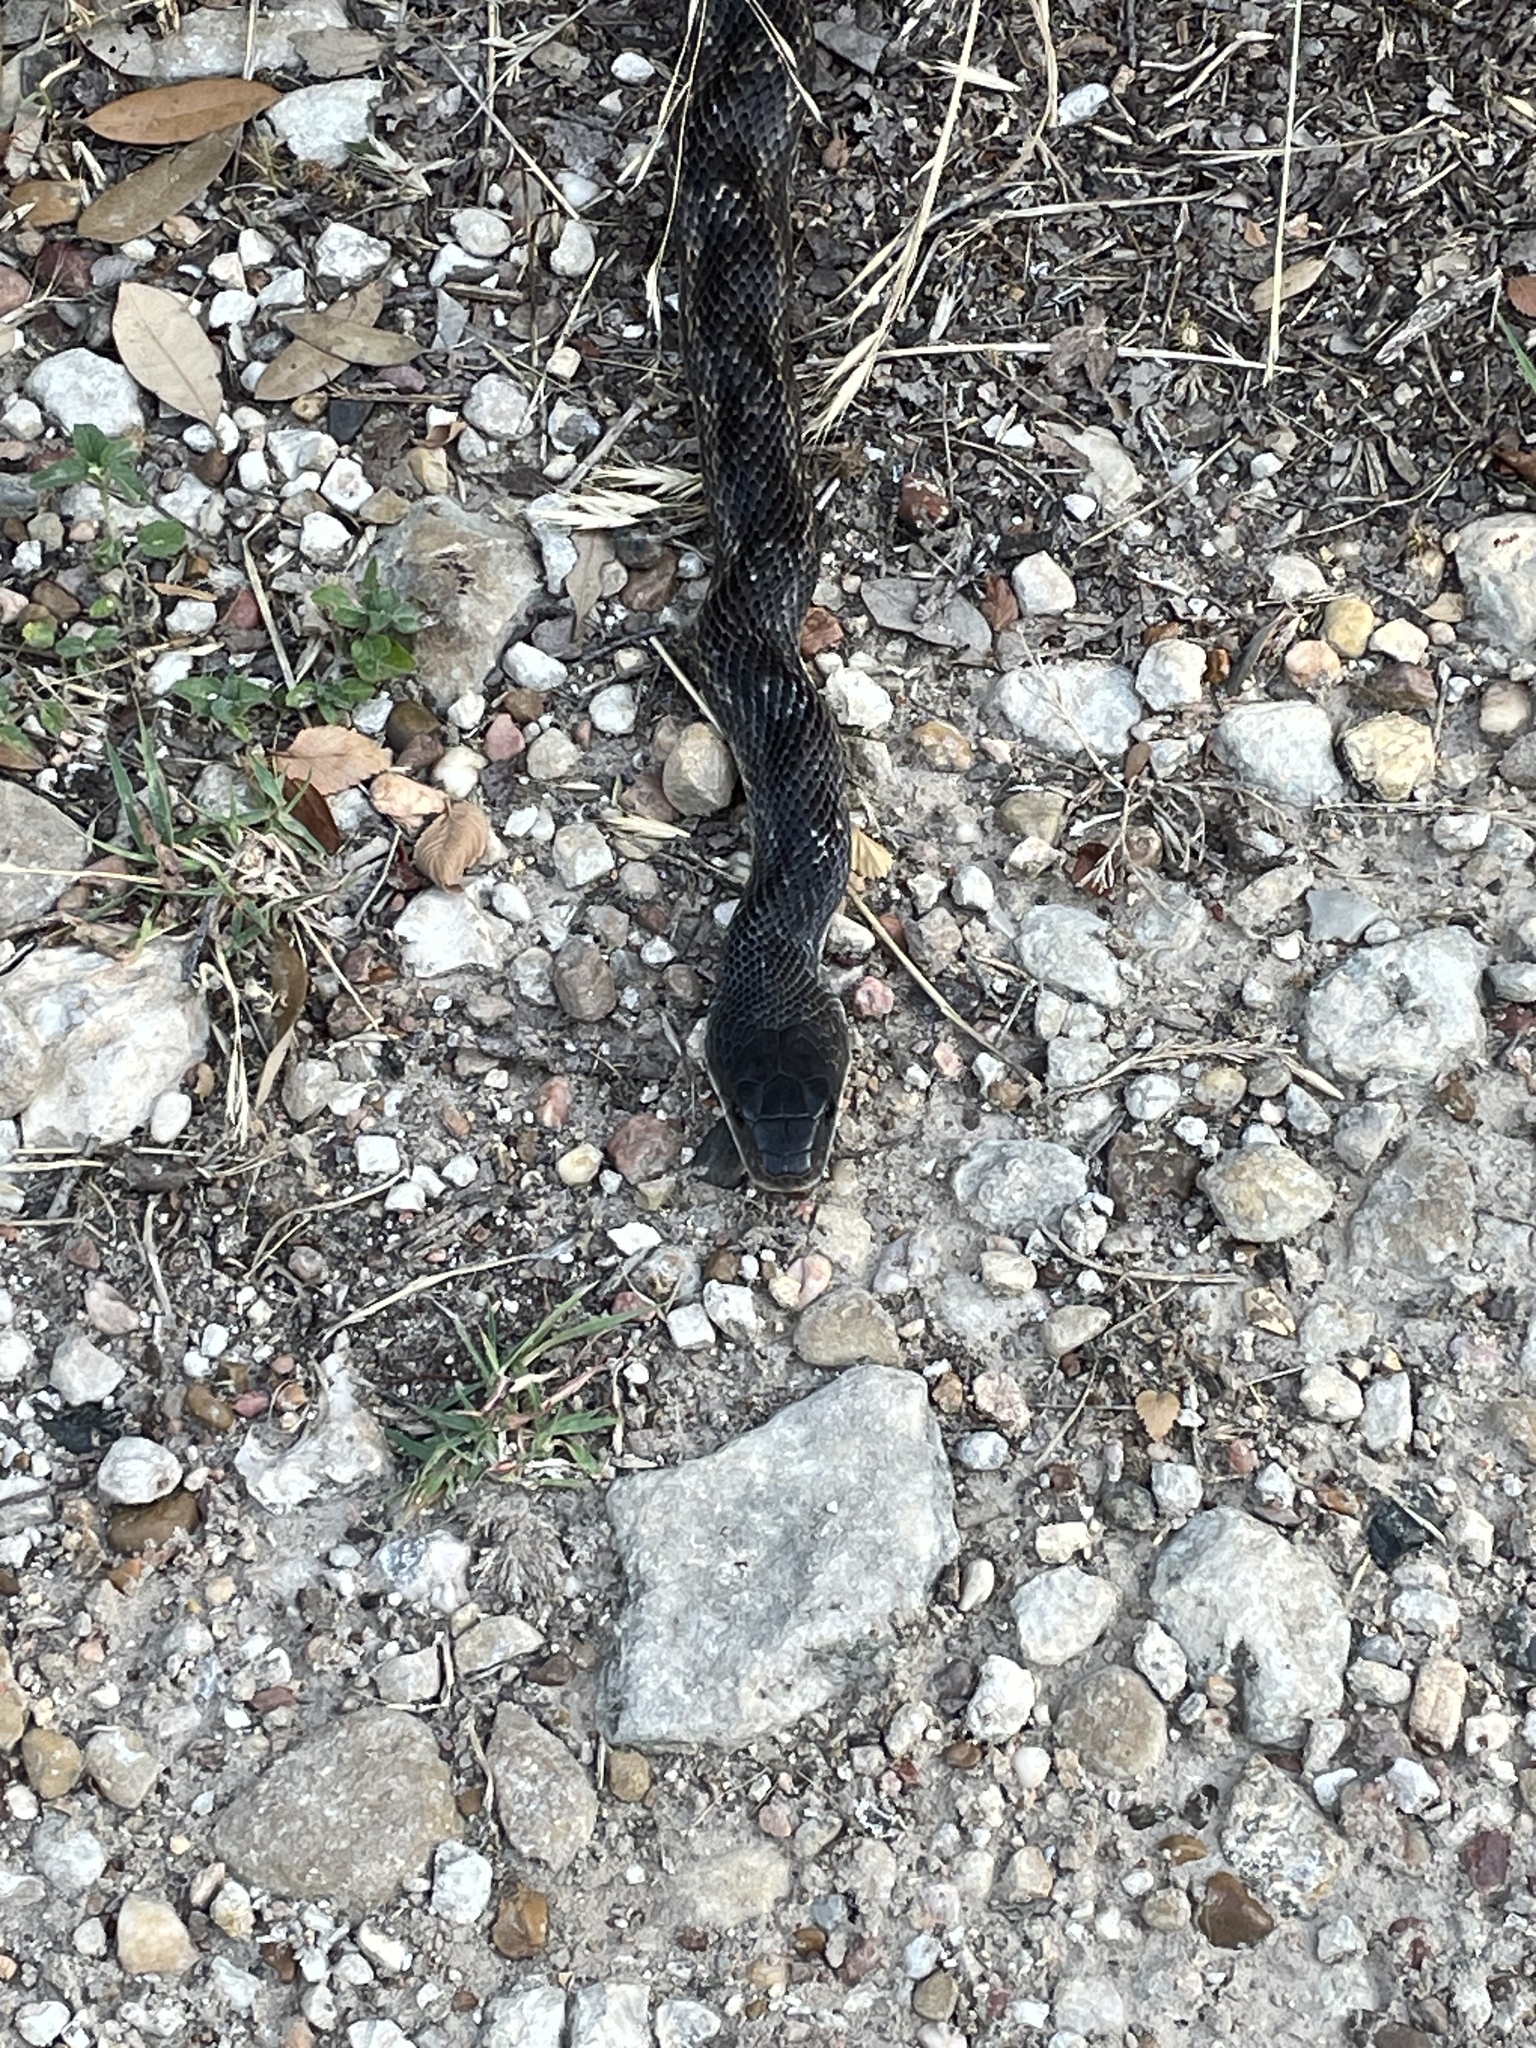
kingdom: Animalia
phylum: Chordata
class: Squamata
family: Colubridae
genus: Pantherophis
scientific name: Pantherophis obsoletus
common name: Black rat snake
